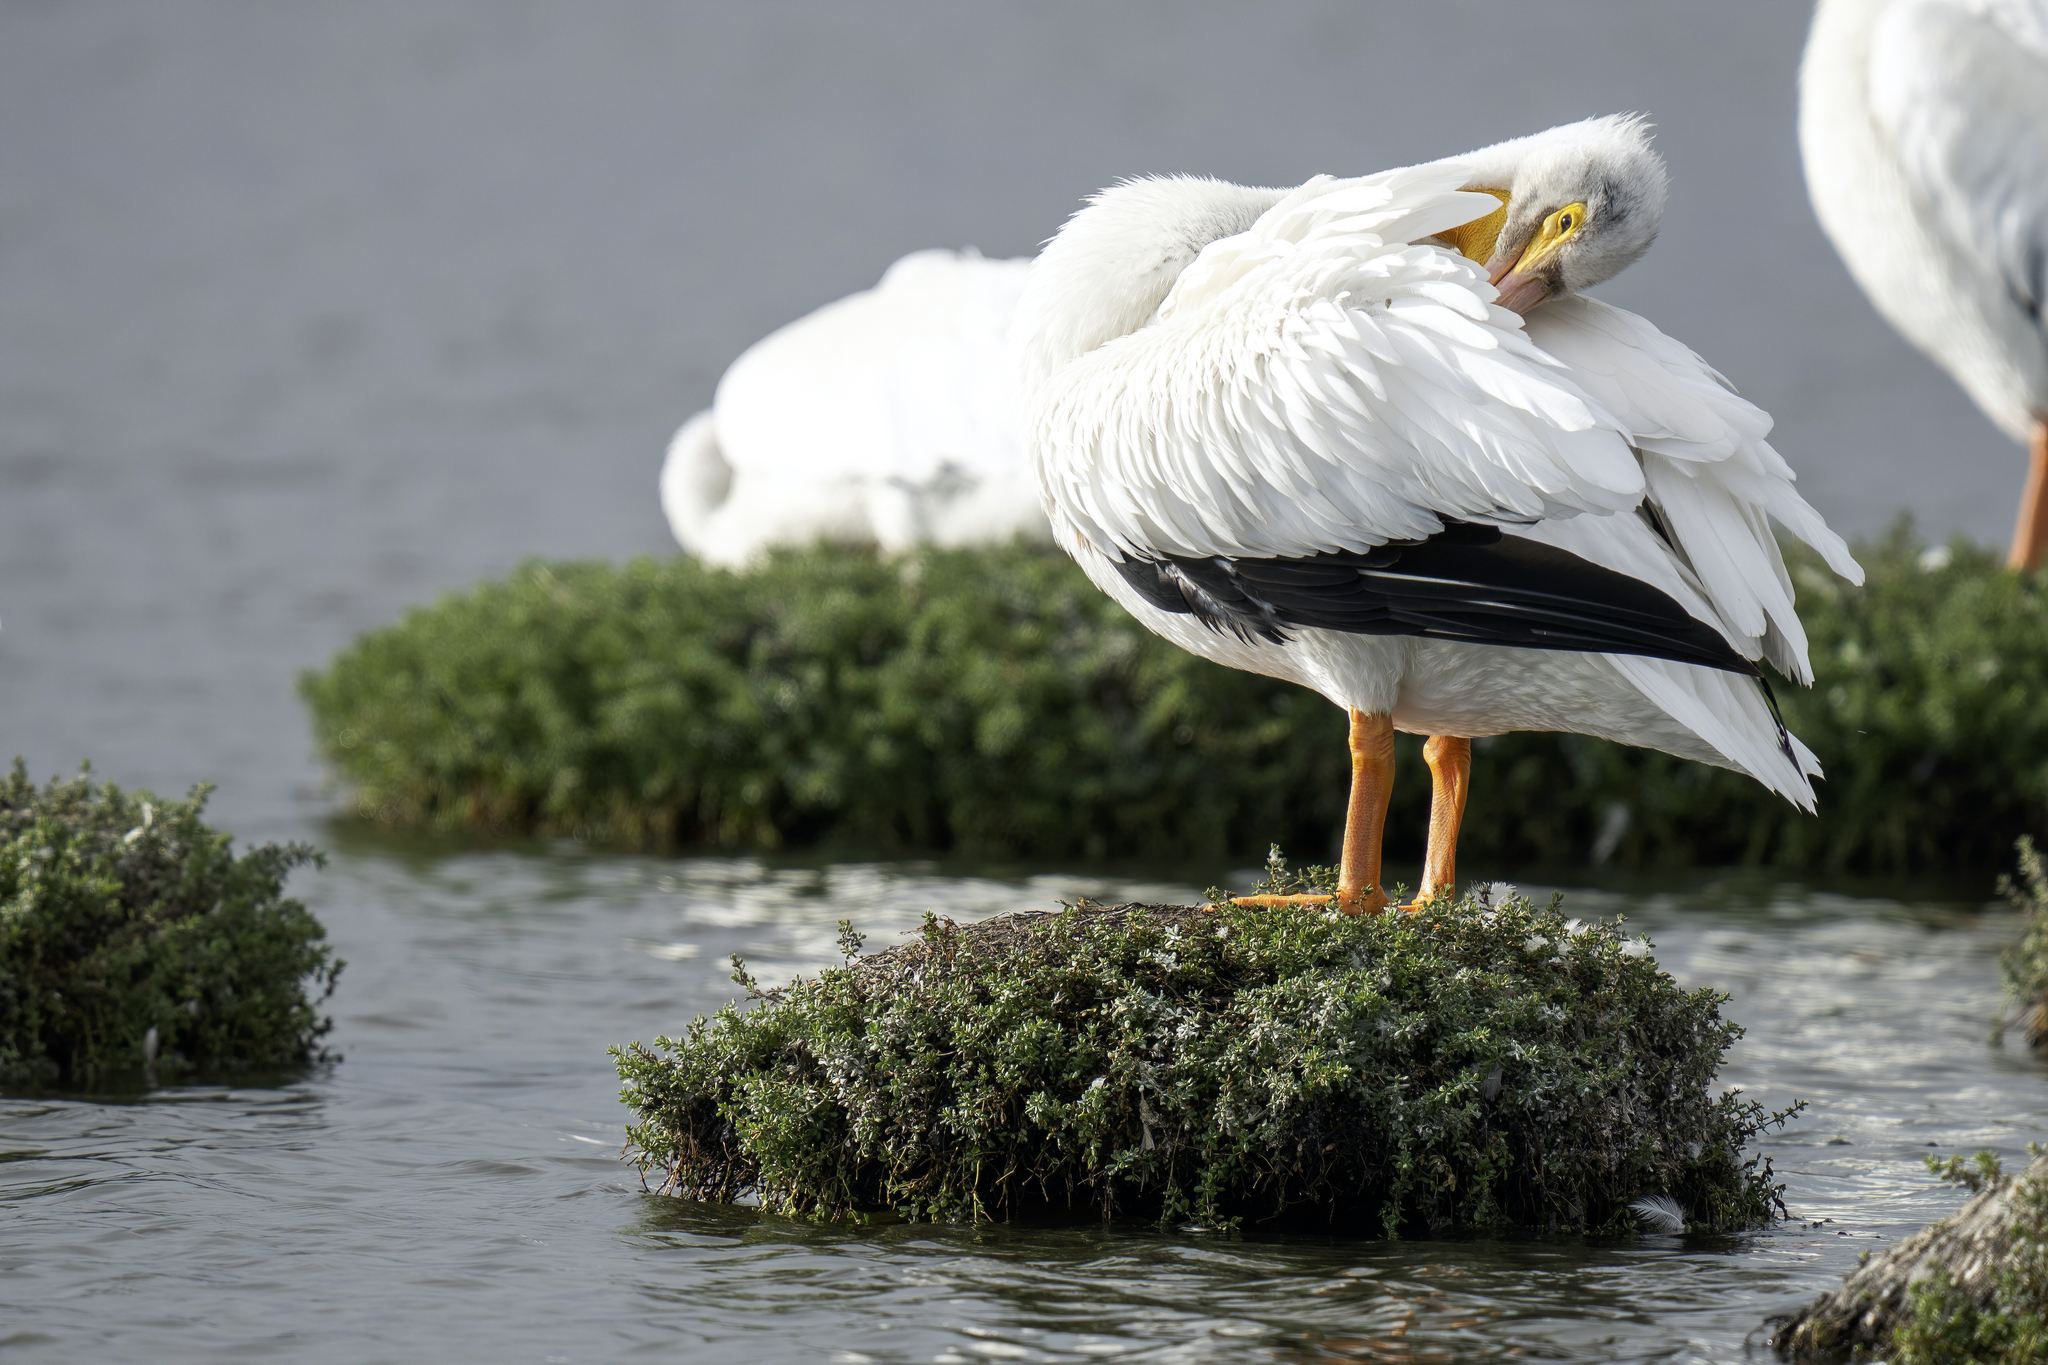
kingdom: Animalia
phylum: Chordata
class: Aves
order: Pelecaniformes
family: Pelecanidae
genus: Pelecanus
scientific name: Pelecanus erythrorhynchos
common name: American white pelican
